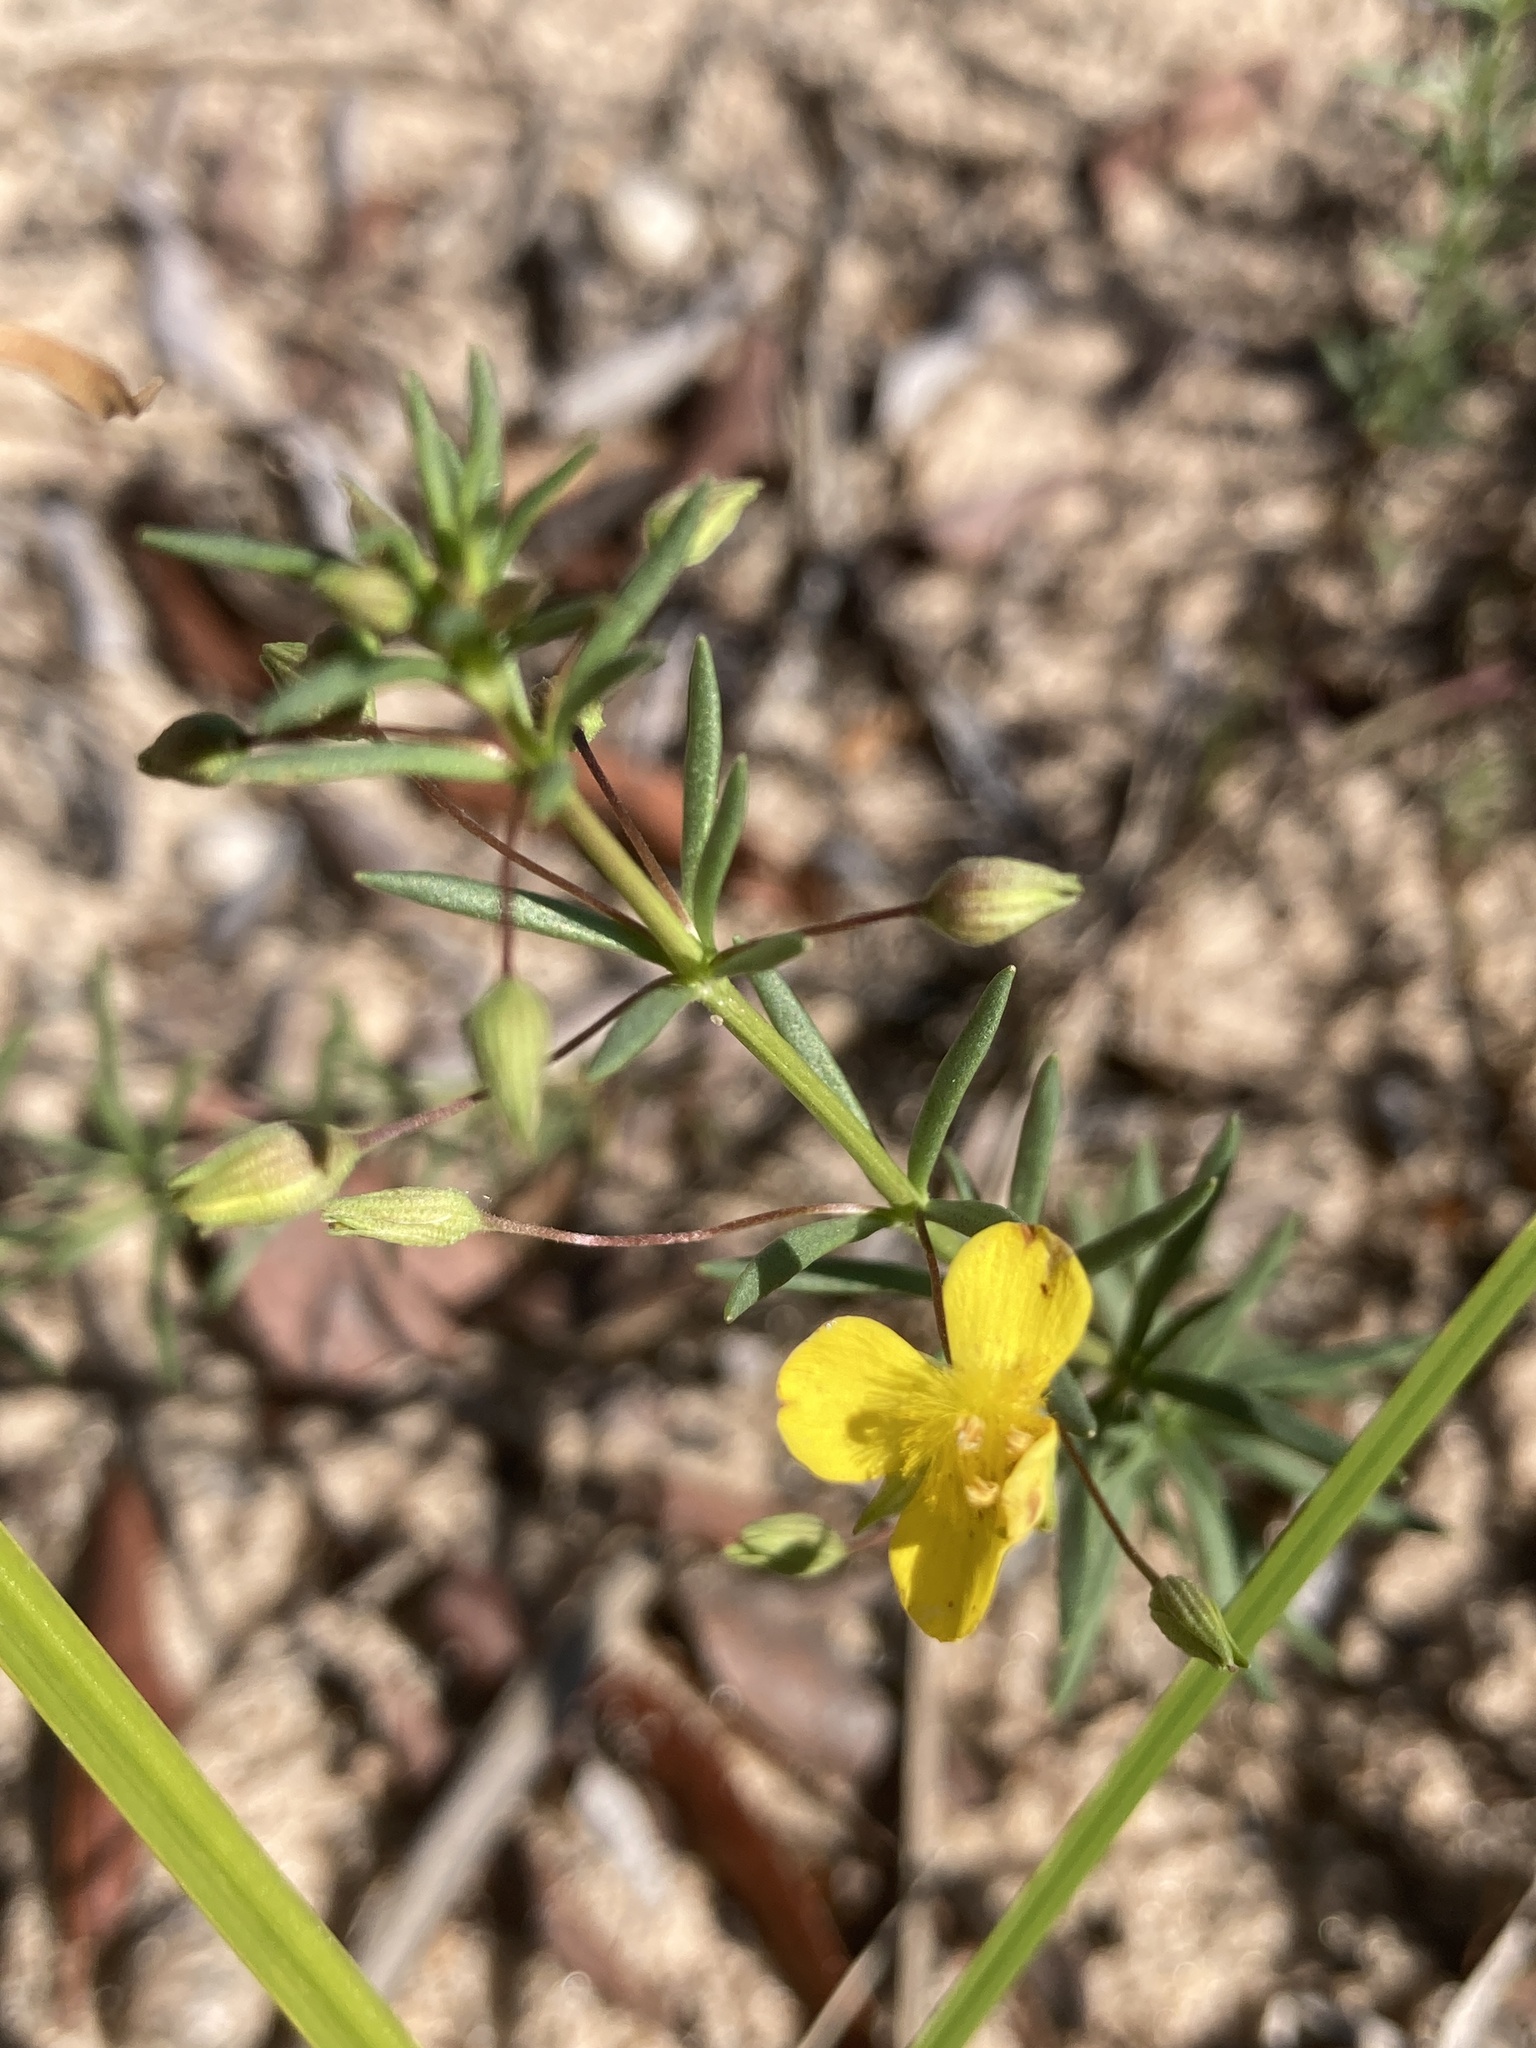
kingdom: Plantae
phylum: Tracheophyta
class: Magnoliopsida
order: Lamiales
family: Plantaginaceae
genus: Scoparia
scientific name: Scoparia montevidensis
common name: Broomwort
